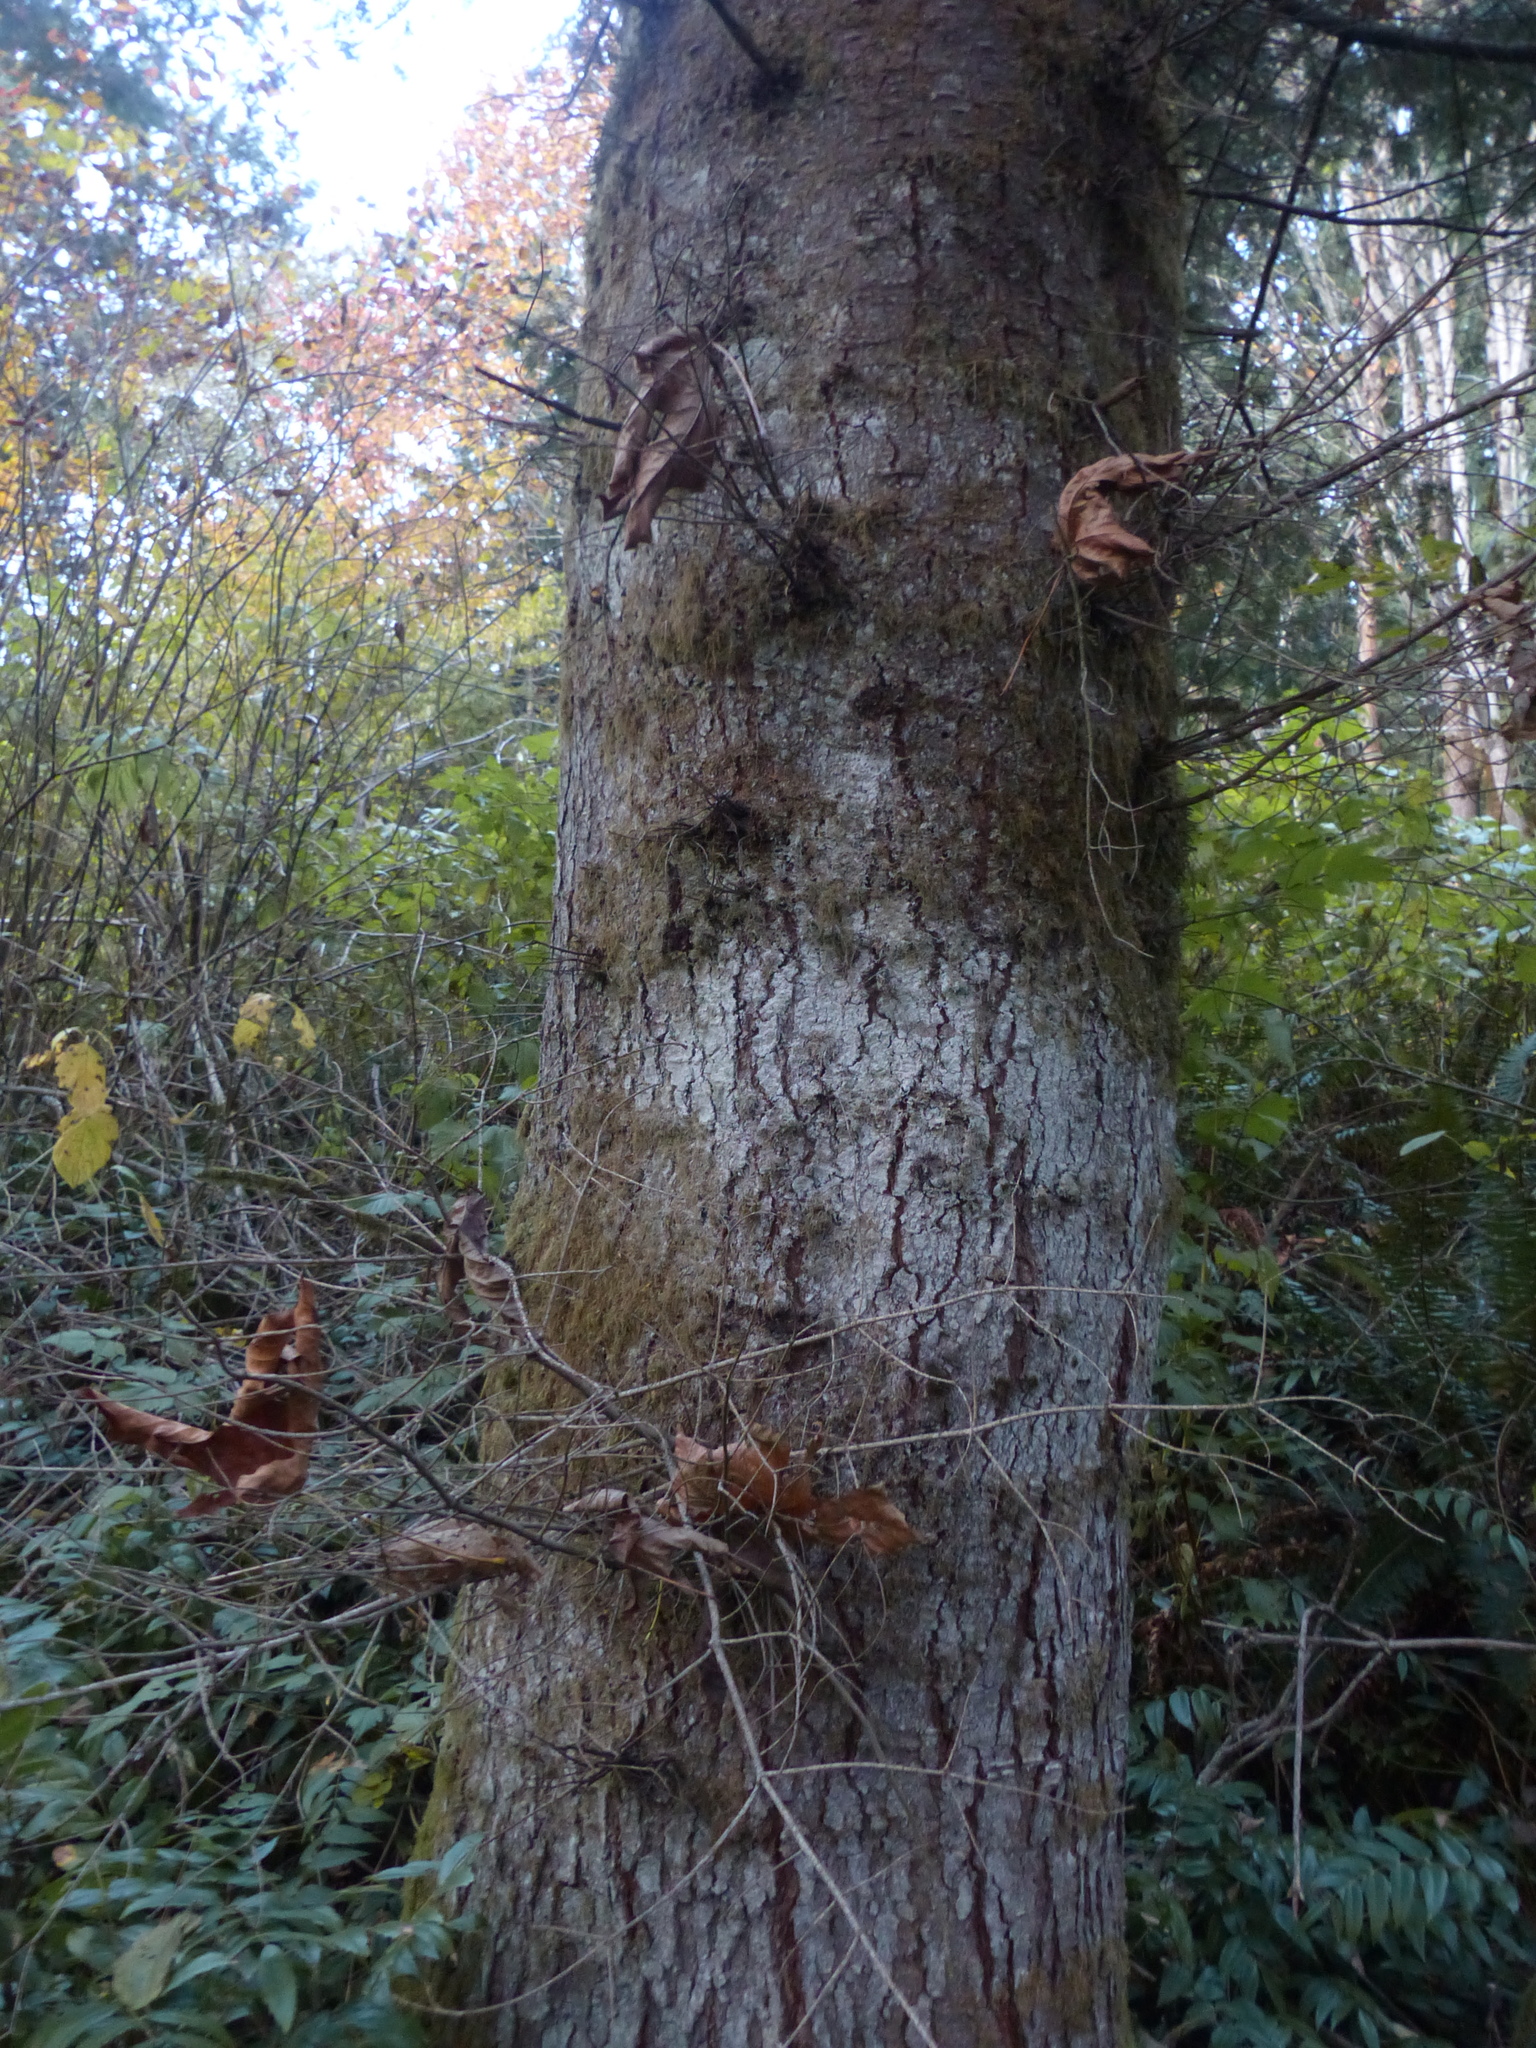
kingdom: Plantae
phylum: Tracheophyta
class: Pinopsida
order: Pinales
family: Pinaceae
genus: Abies
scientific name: Abies grandis
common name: Giant fir
